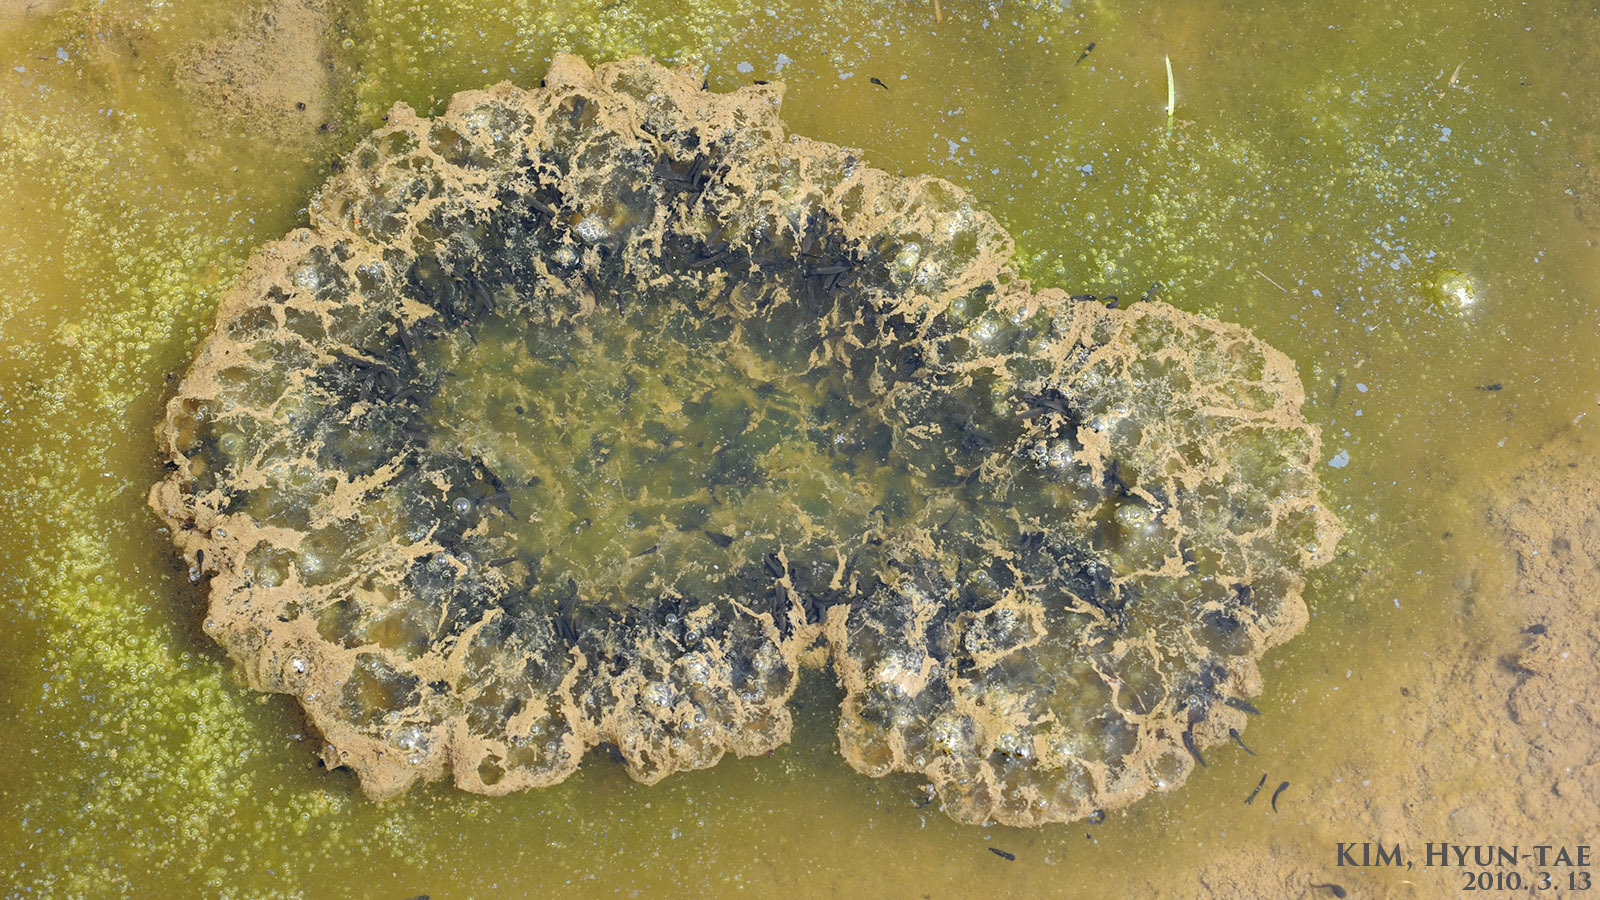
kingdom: Animalia
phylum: Chordata
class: Amphibia
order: Anura
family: Ranidae
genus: Rana
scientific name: Rana uenoi
